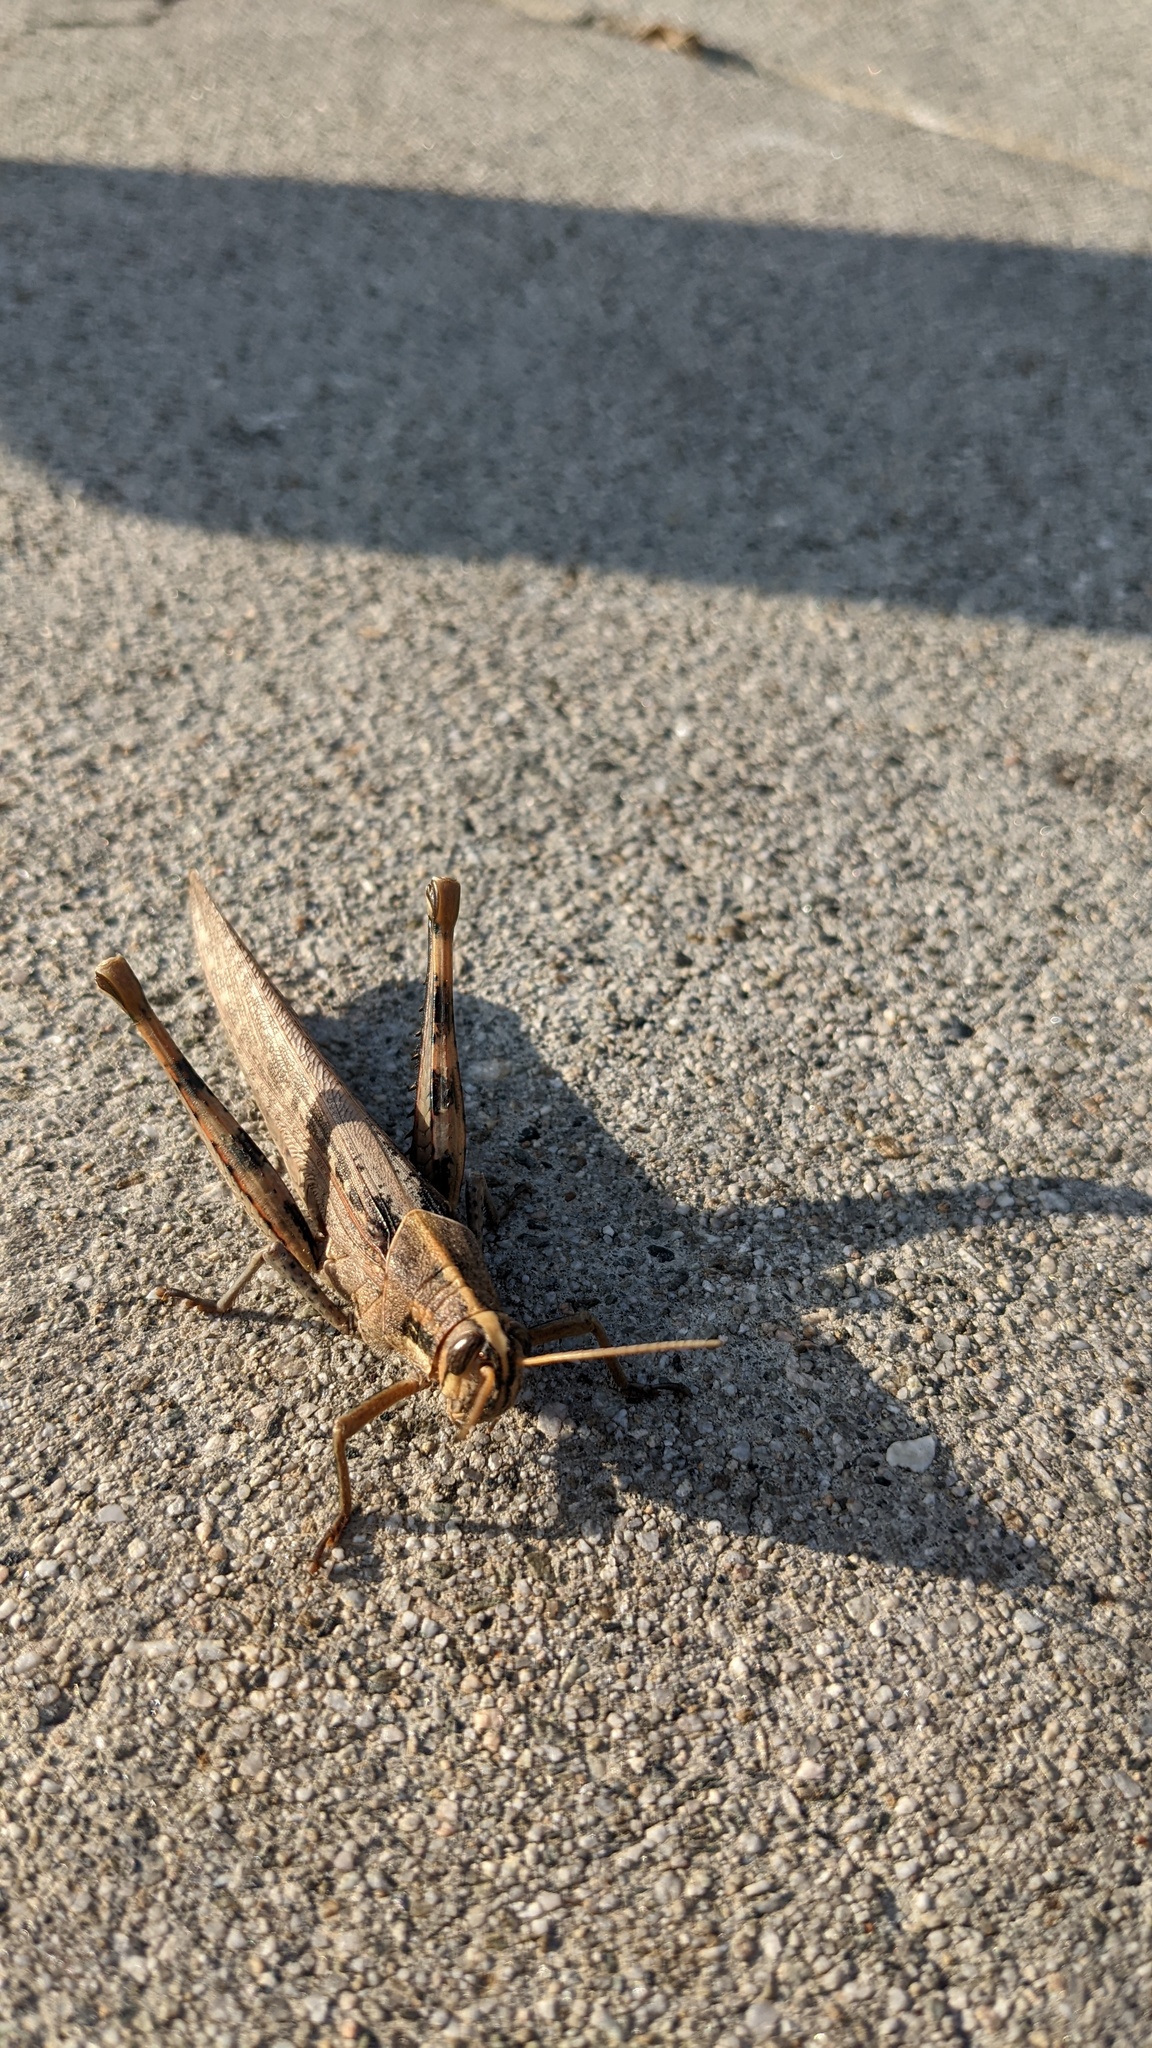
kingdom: Animalia
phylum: Arthropoda
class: Insecta
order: Orthoptera
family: Acrididae
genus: Schistocerca
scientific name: Schistocerca nitens
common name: Vagrant grasshopper
